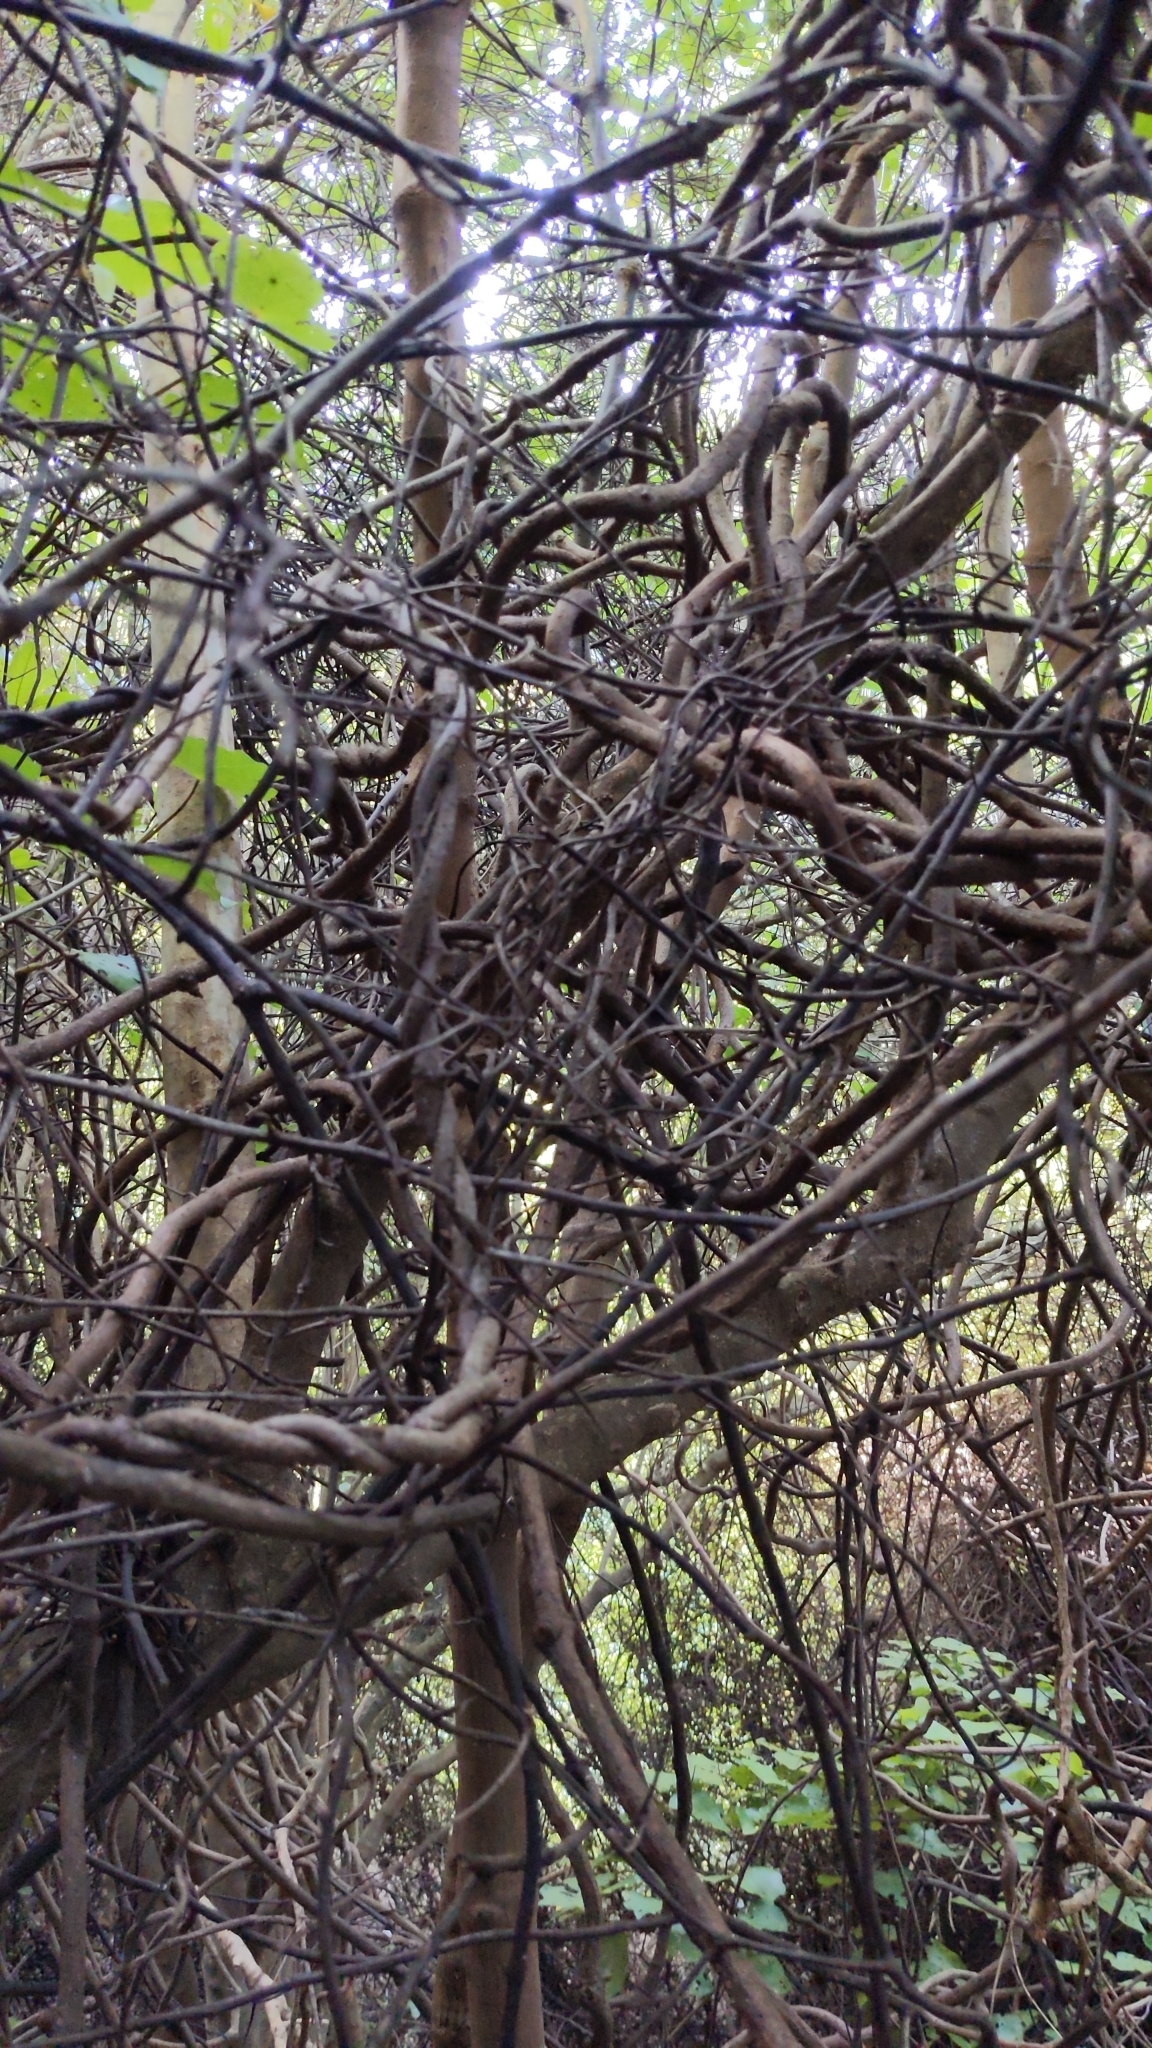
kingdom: Plantae
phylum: Tracheophyta
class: Liliopsida
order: Liliales
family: Ripogonaceae
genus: Ripogonum
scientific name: Ripogonum scandens
